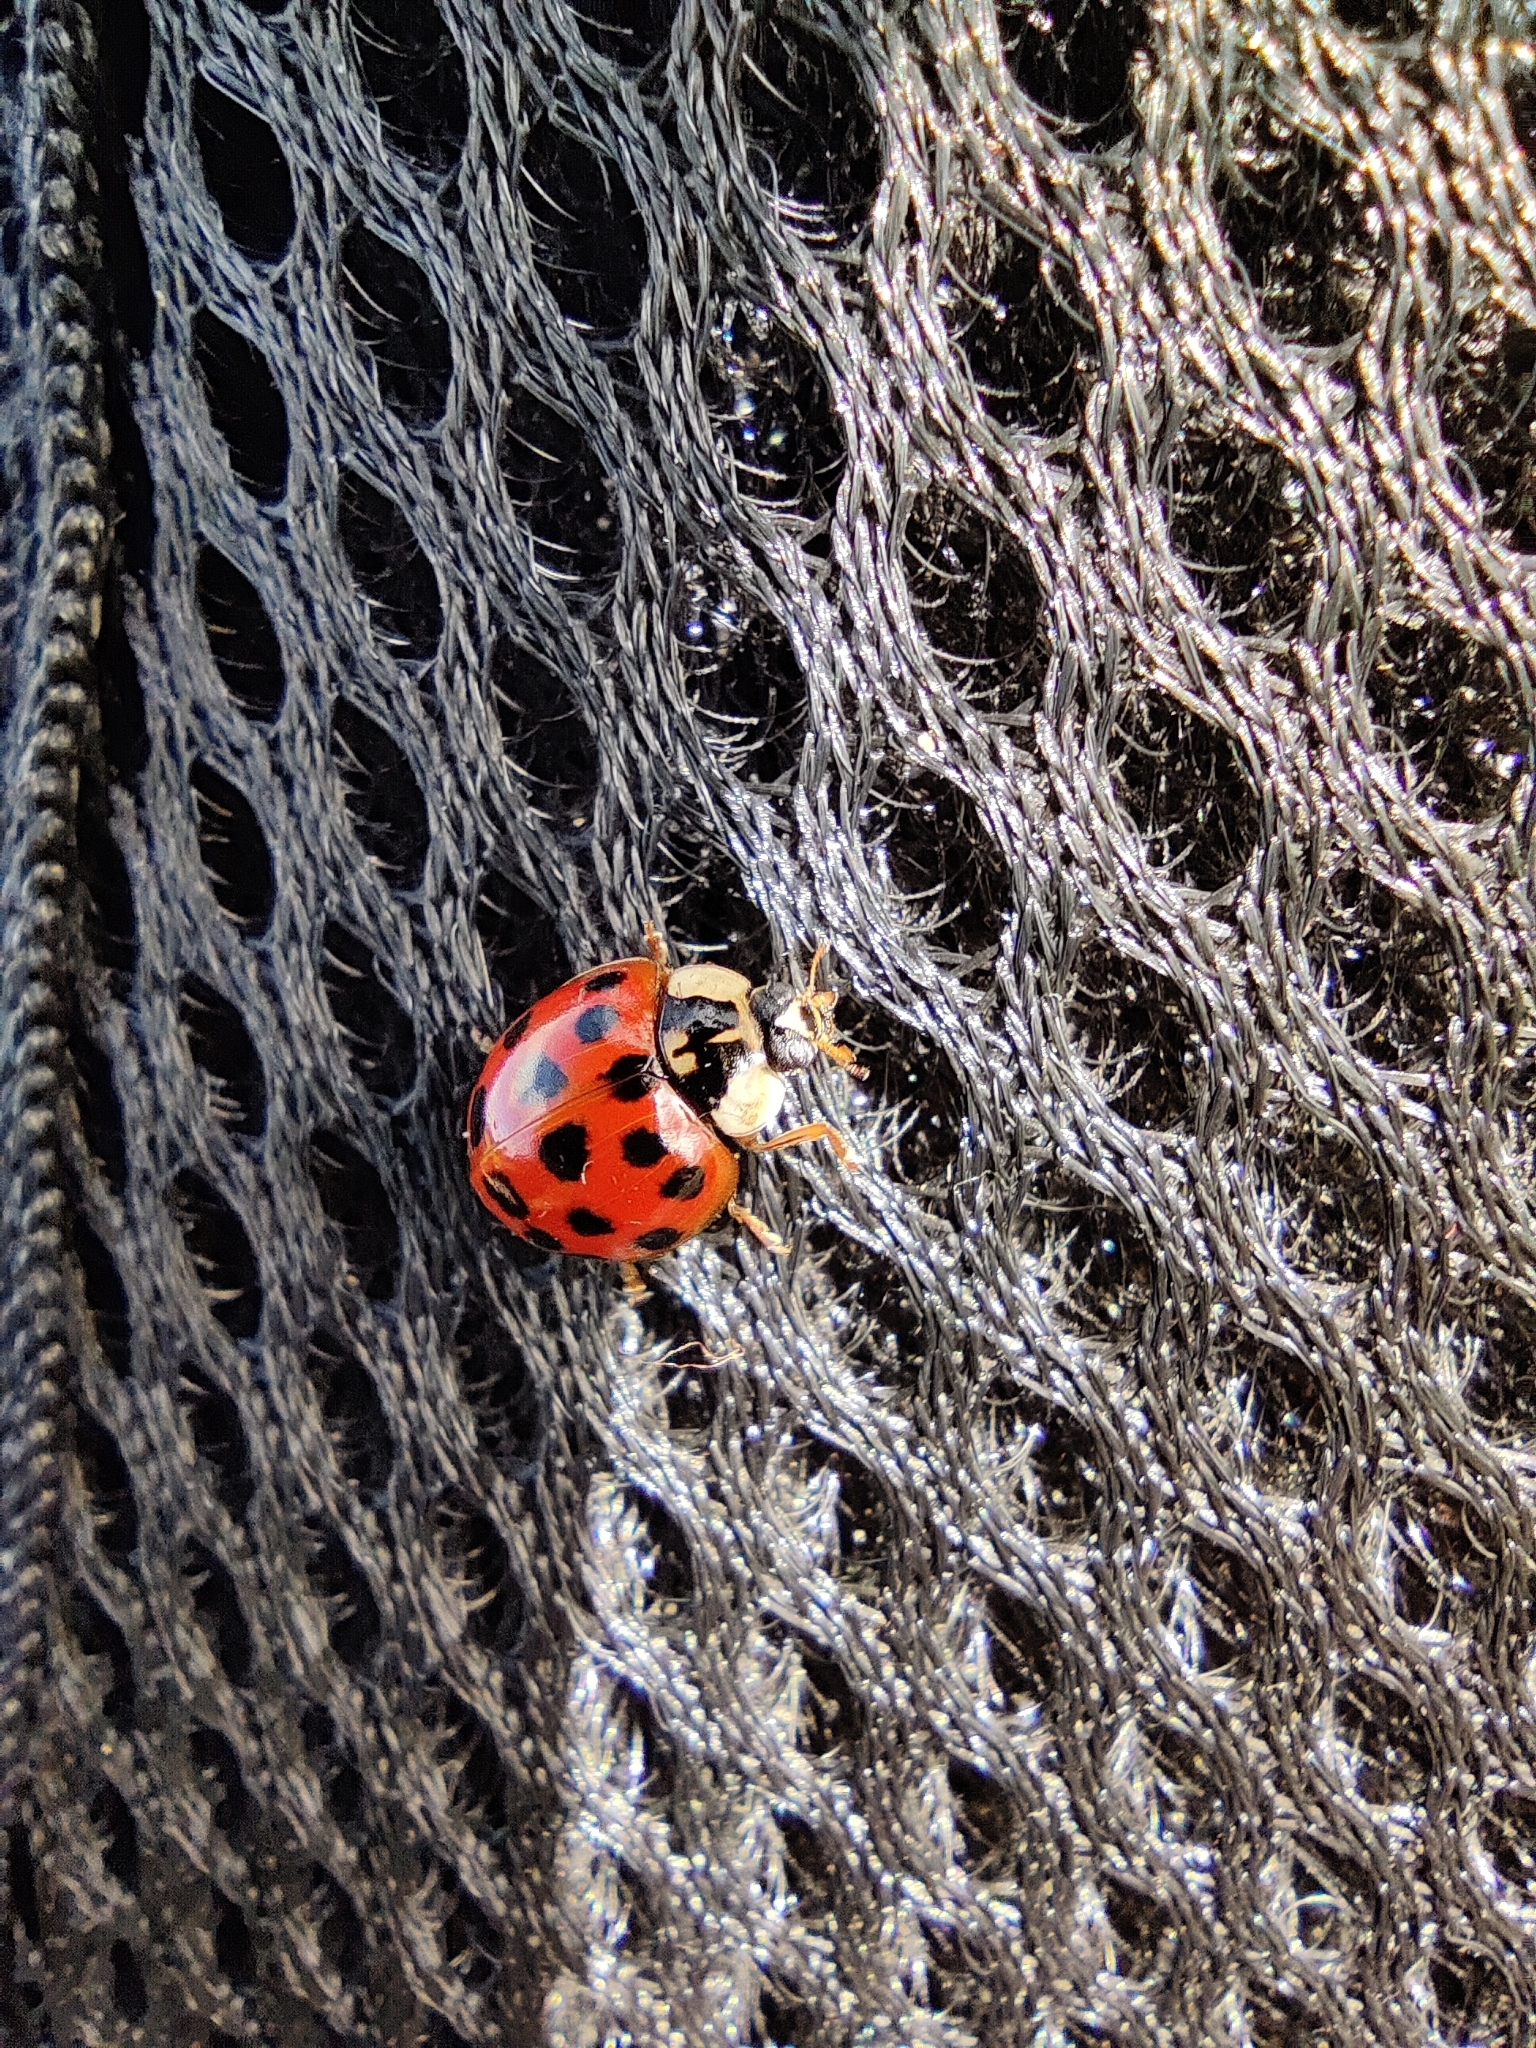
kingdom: Animalia
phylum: Arthropoda
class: Insecta
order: Coleoptera
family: Coccinellidae
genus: Harmonia
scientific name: Harmonia axyridis
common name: Harlequin ladybird
